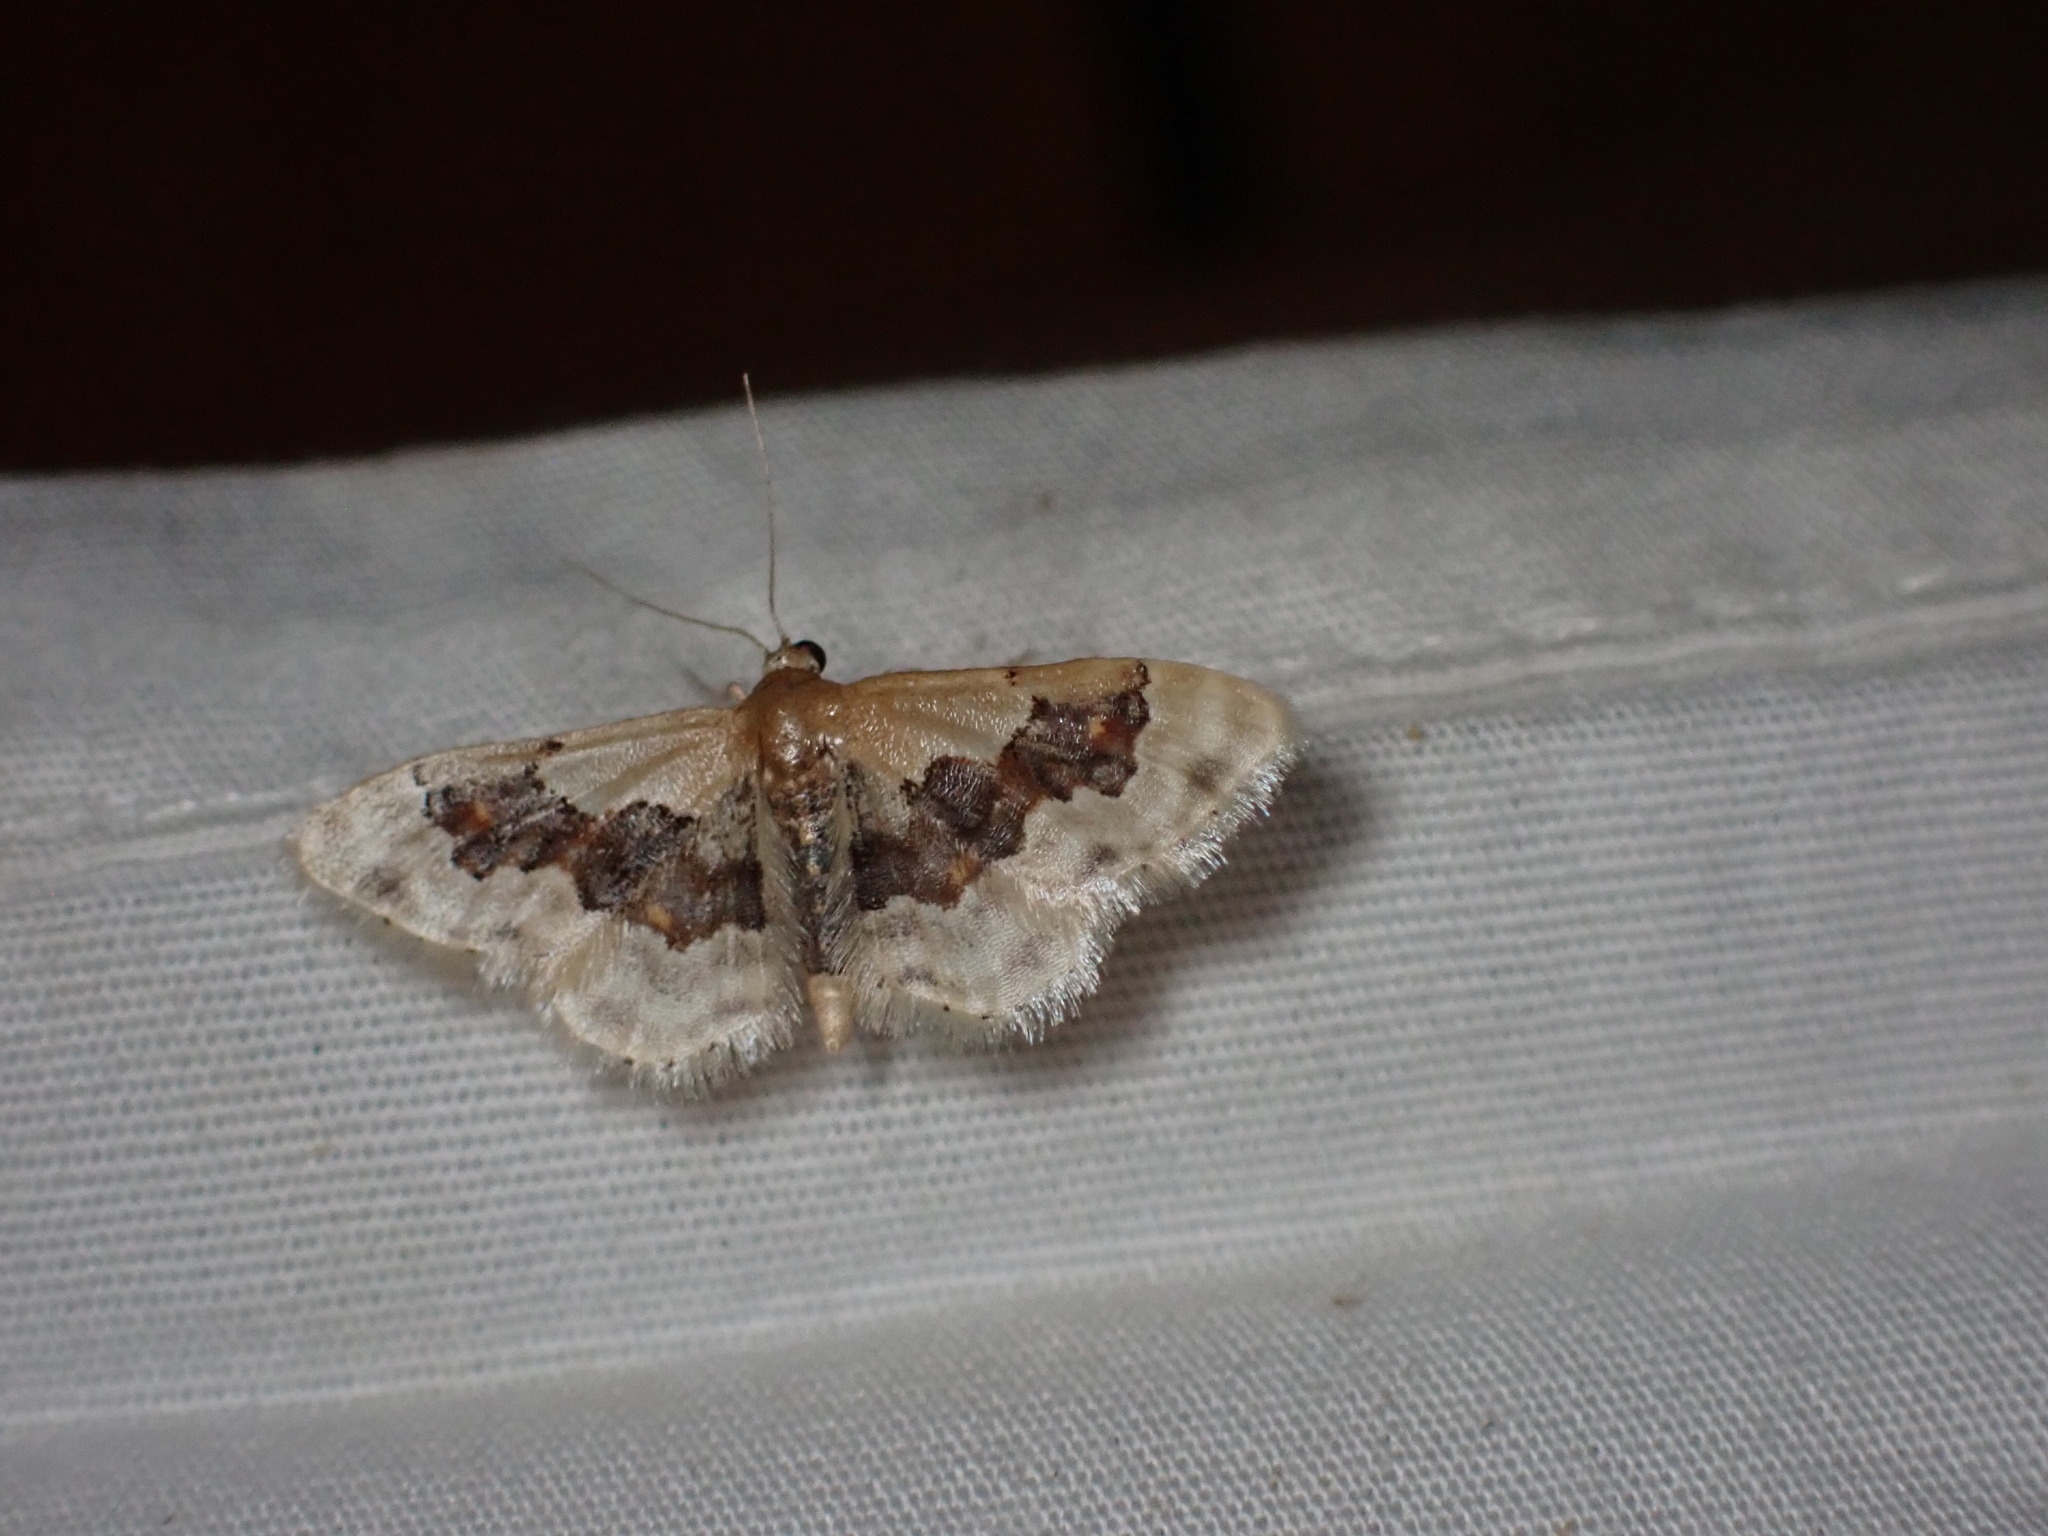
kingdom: Animalia
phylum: Arthropoda
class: Insecta
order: Lepidoptera
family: Geometridae
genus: Idaea
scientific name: Idaea gemmata
